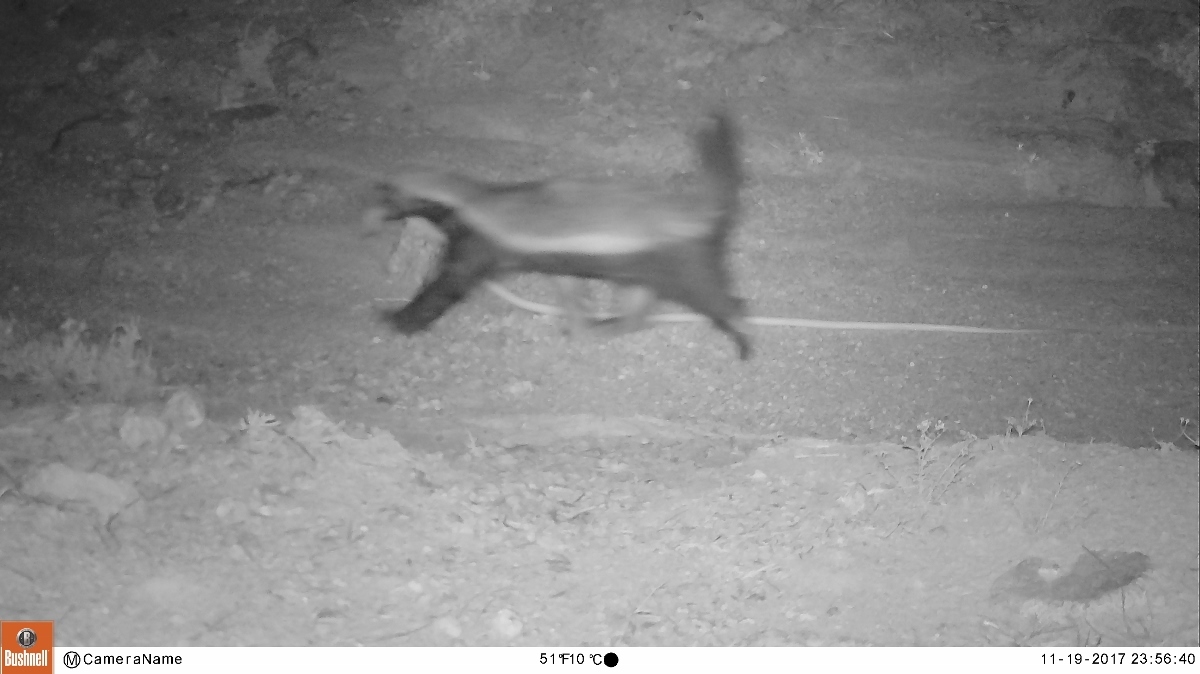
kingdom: Animalia
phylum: Chordata
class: Mammalia
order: Carnivora
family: Mustelidae
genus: Mellivora
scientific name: Mellivora capensis
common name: Honey badger
